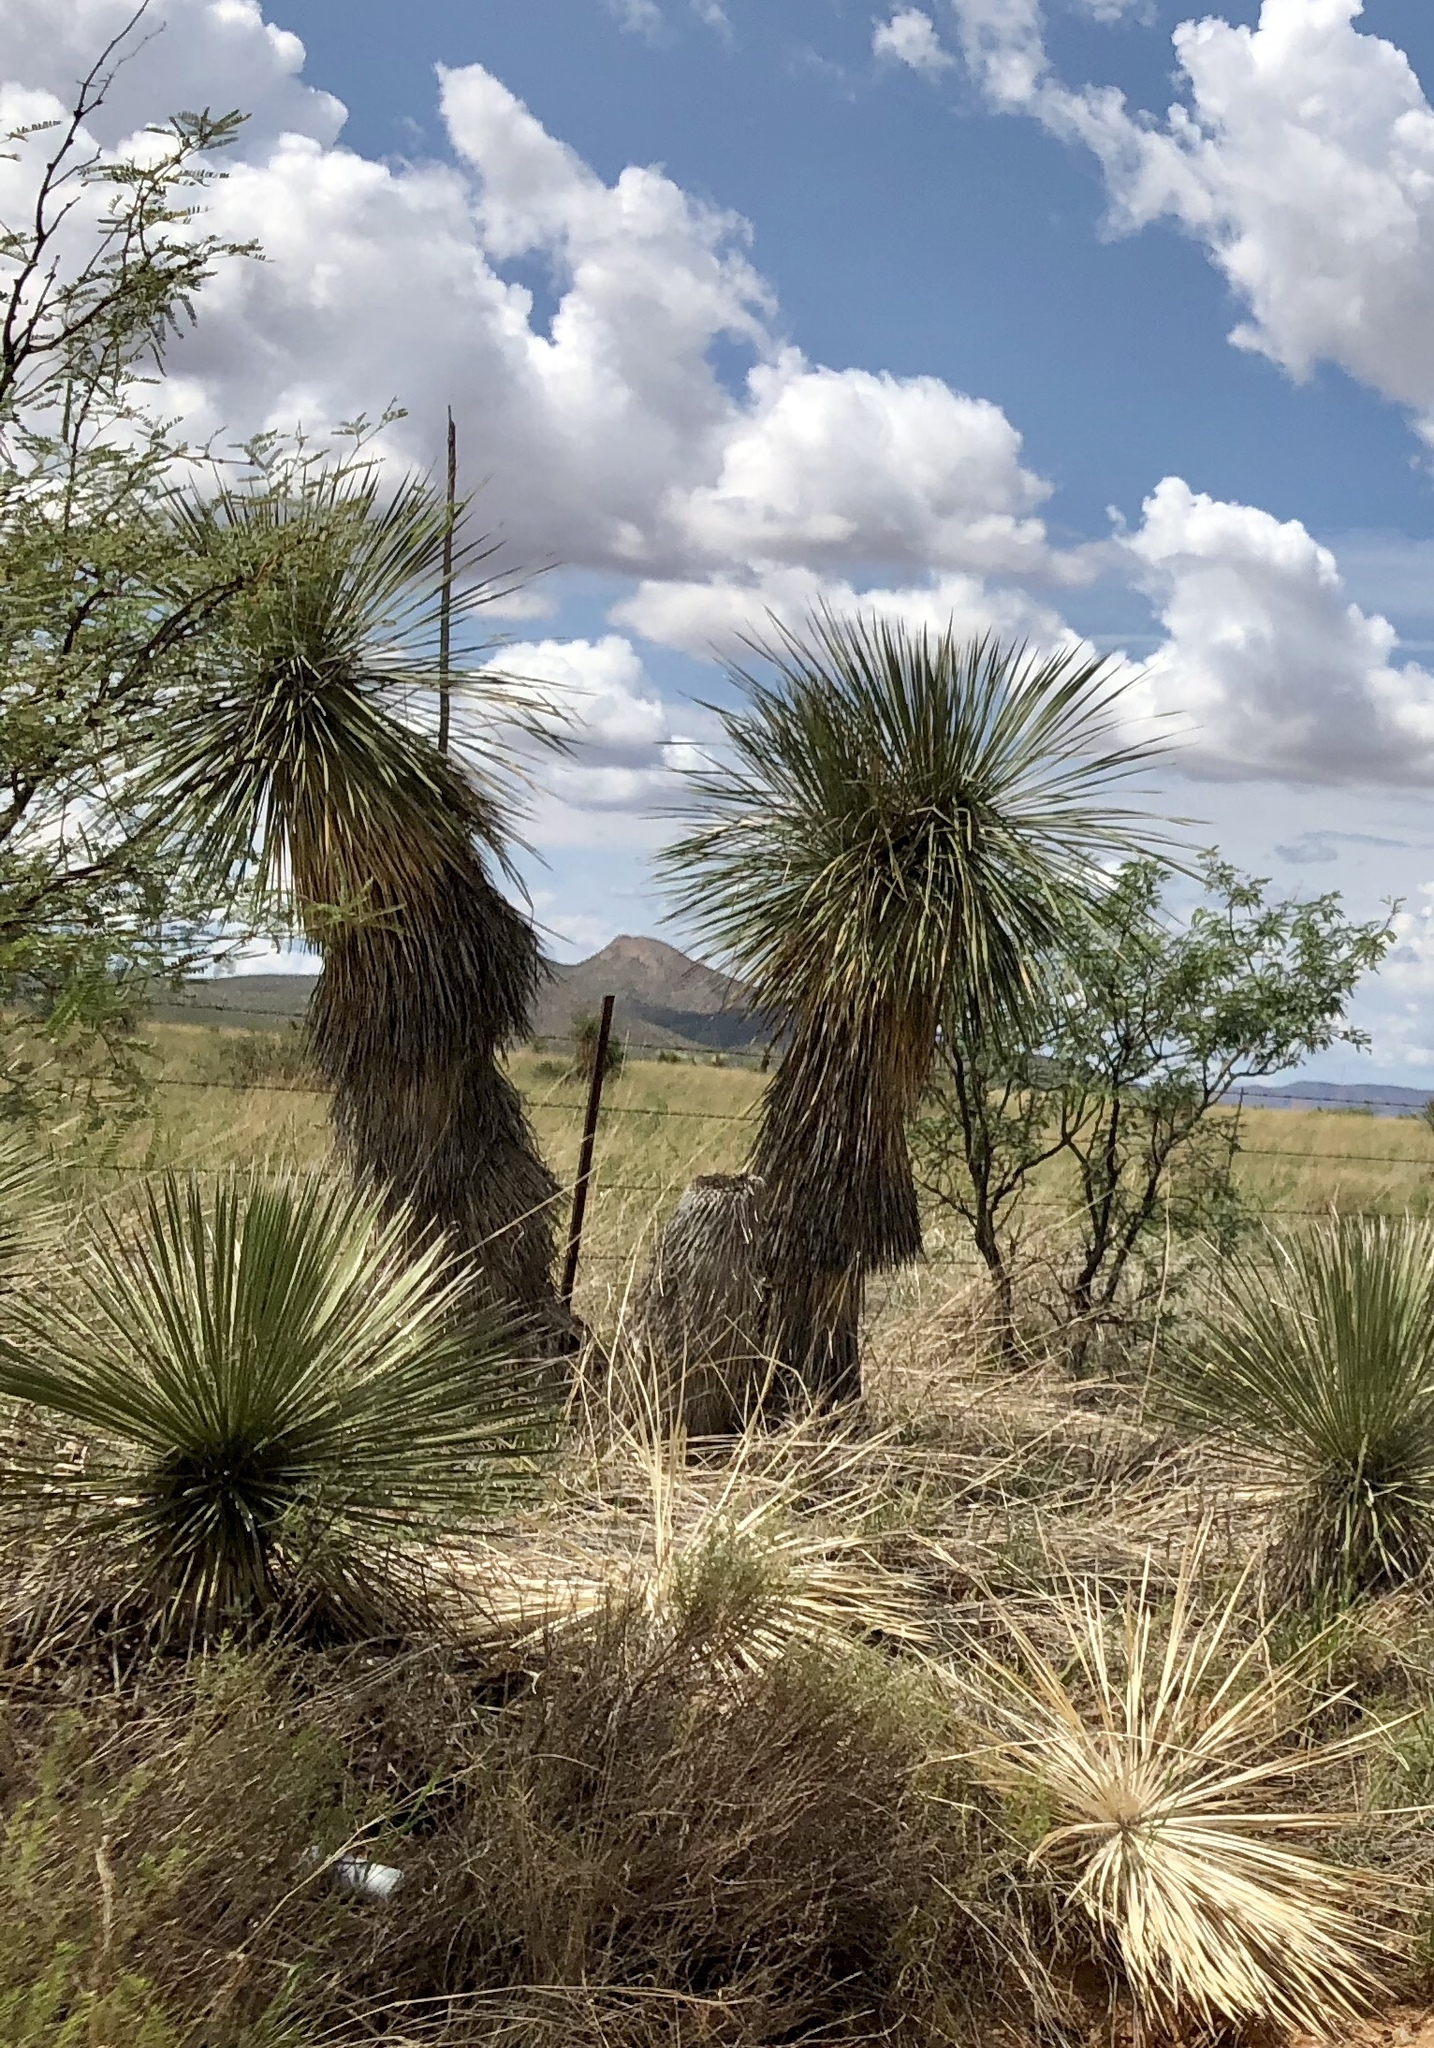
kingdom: Plantae
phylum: Tracheophyta
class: Liliopsida
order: Asparagales
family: Asparagaceae
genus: Yucca
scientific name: Yucca elata
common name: Palmella
